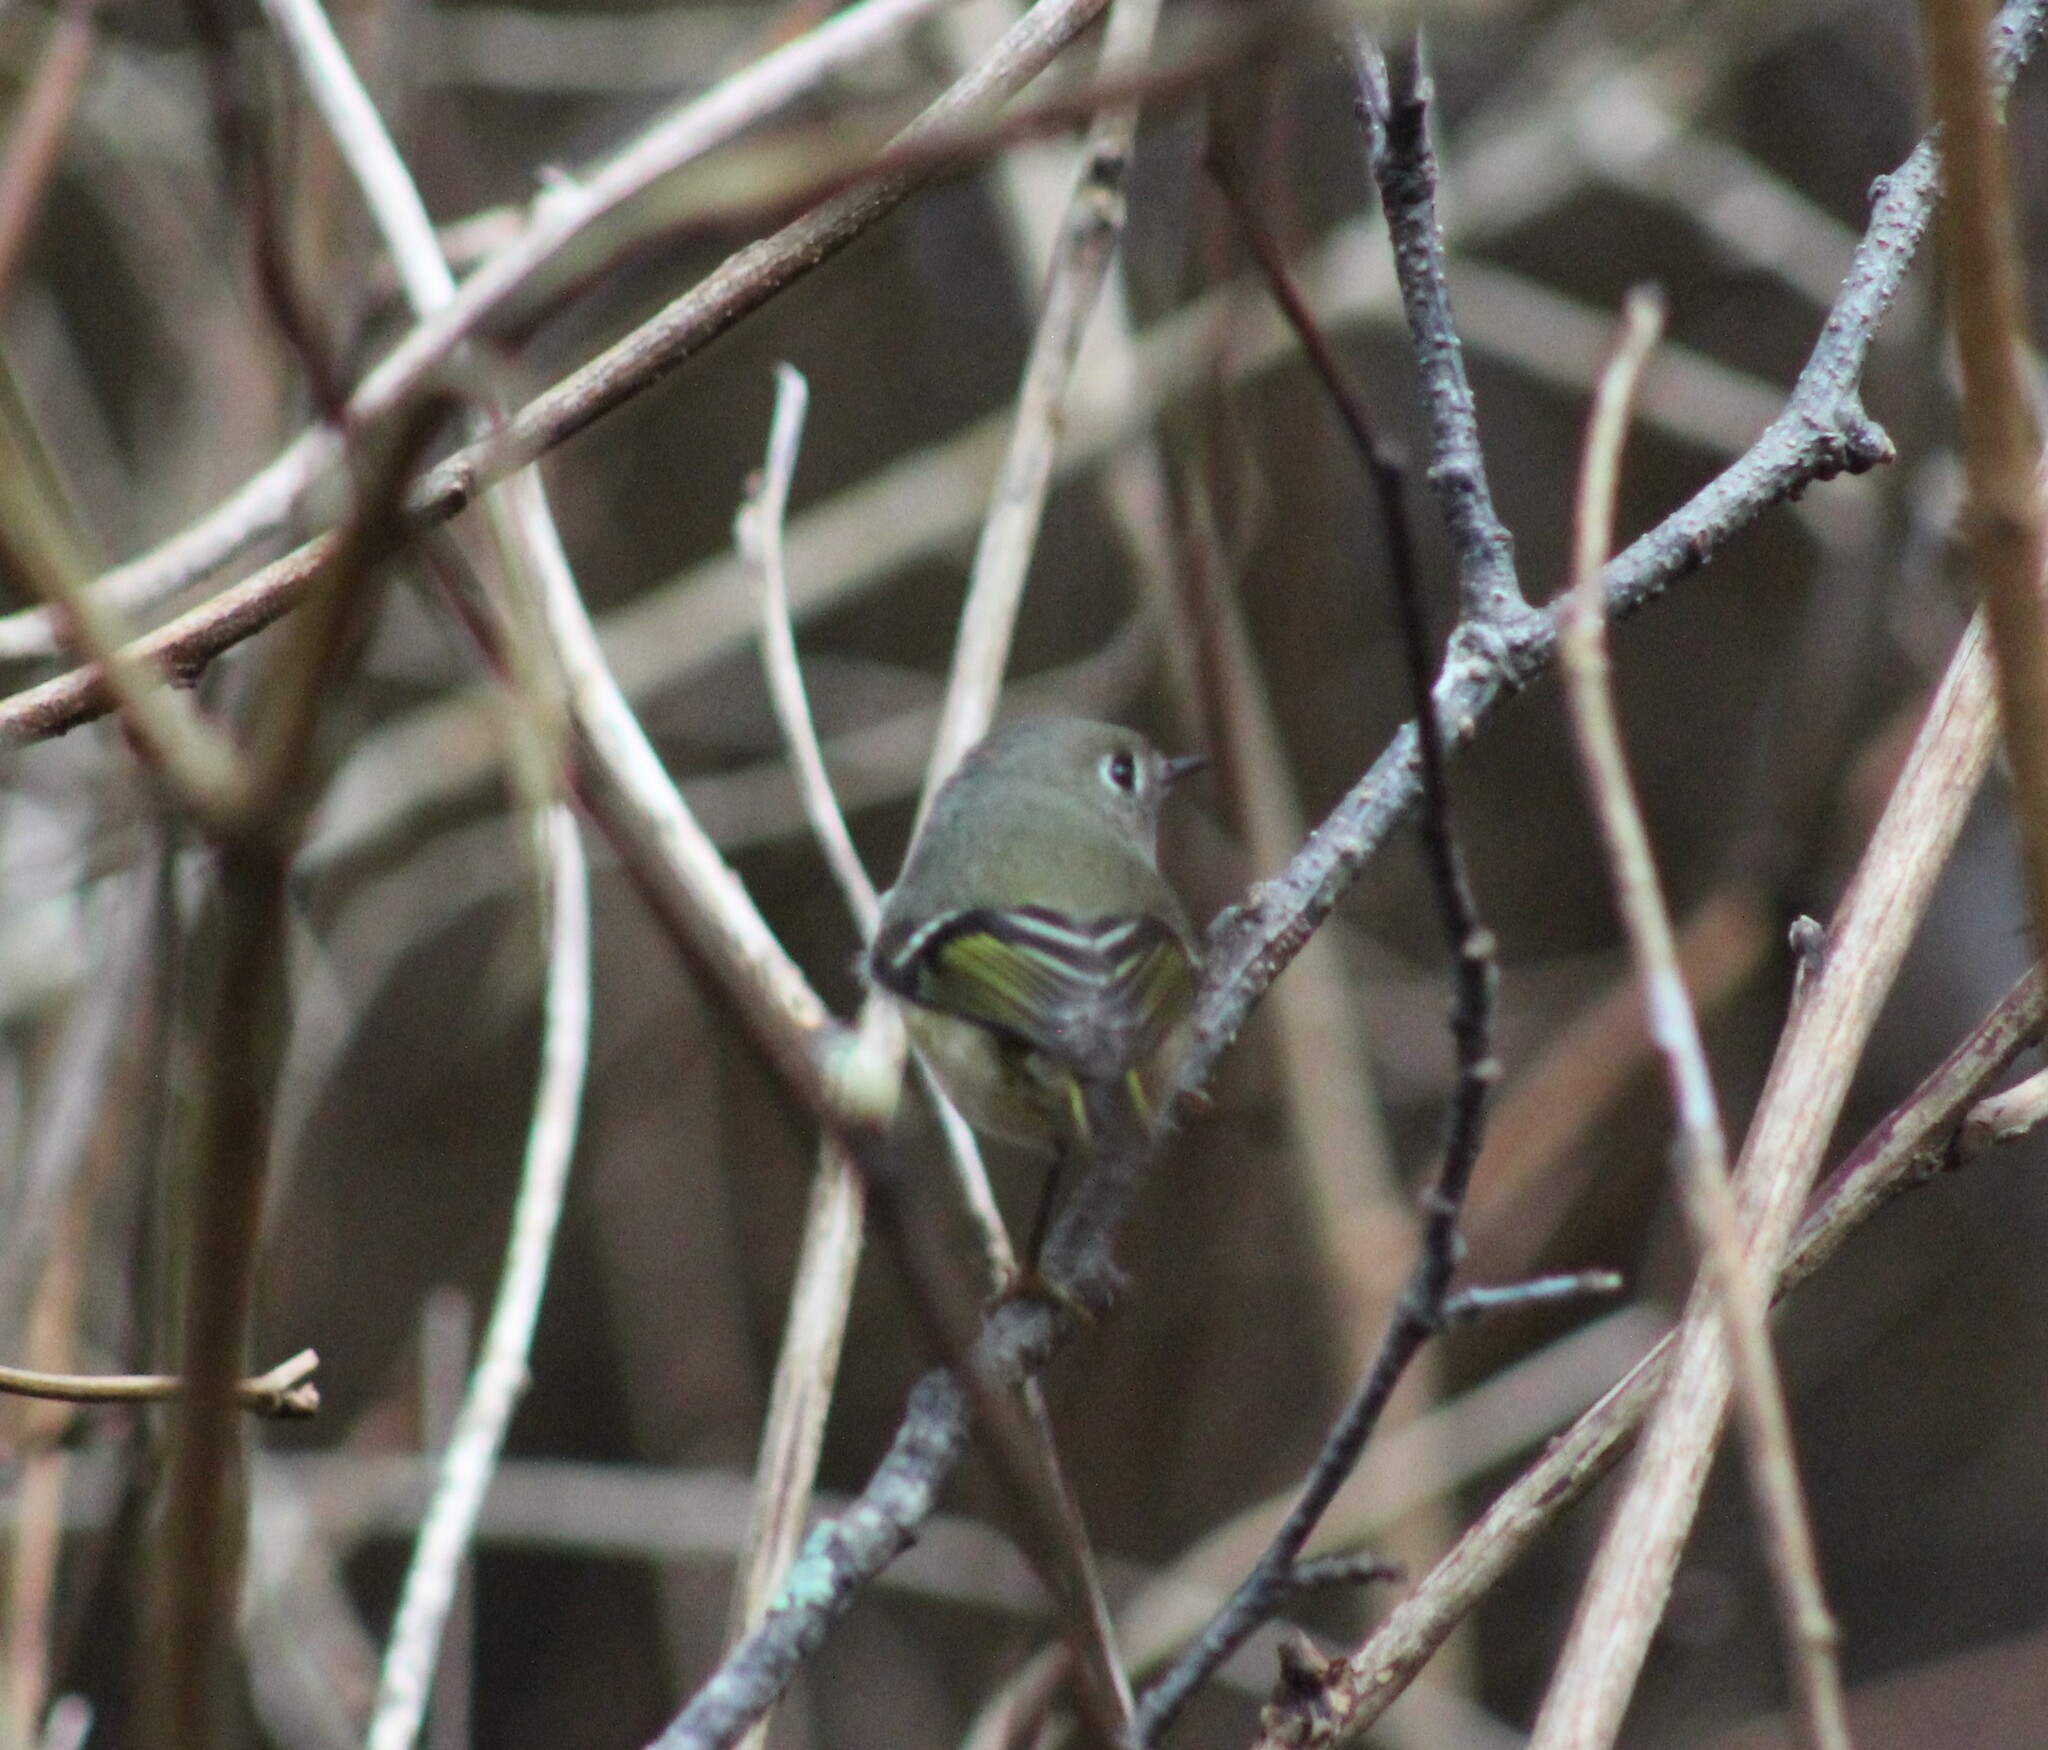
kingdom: Animalia
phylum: Chordata
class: Aves
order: Passeriformes
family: Regulidae
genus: Regulus
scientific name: Regulus calendula
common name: Ruby-crowned kinglet
